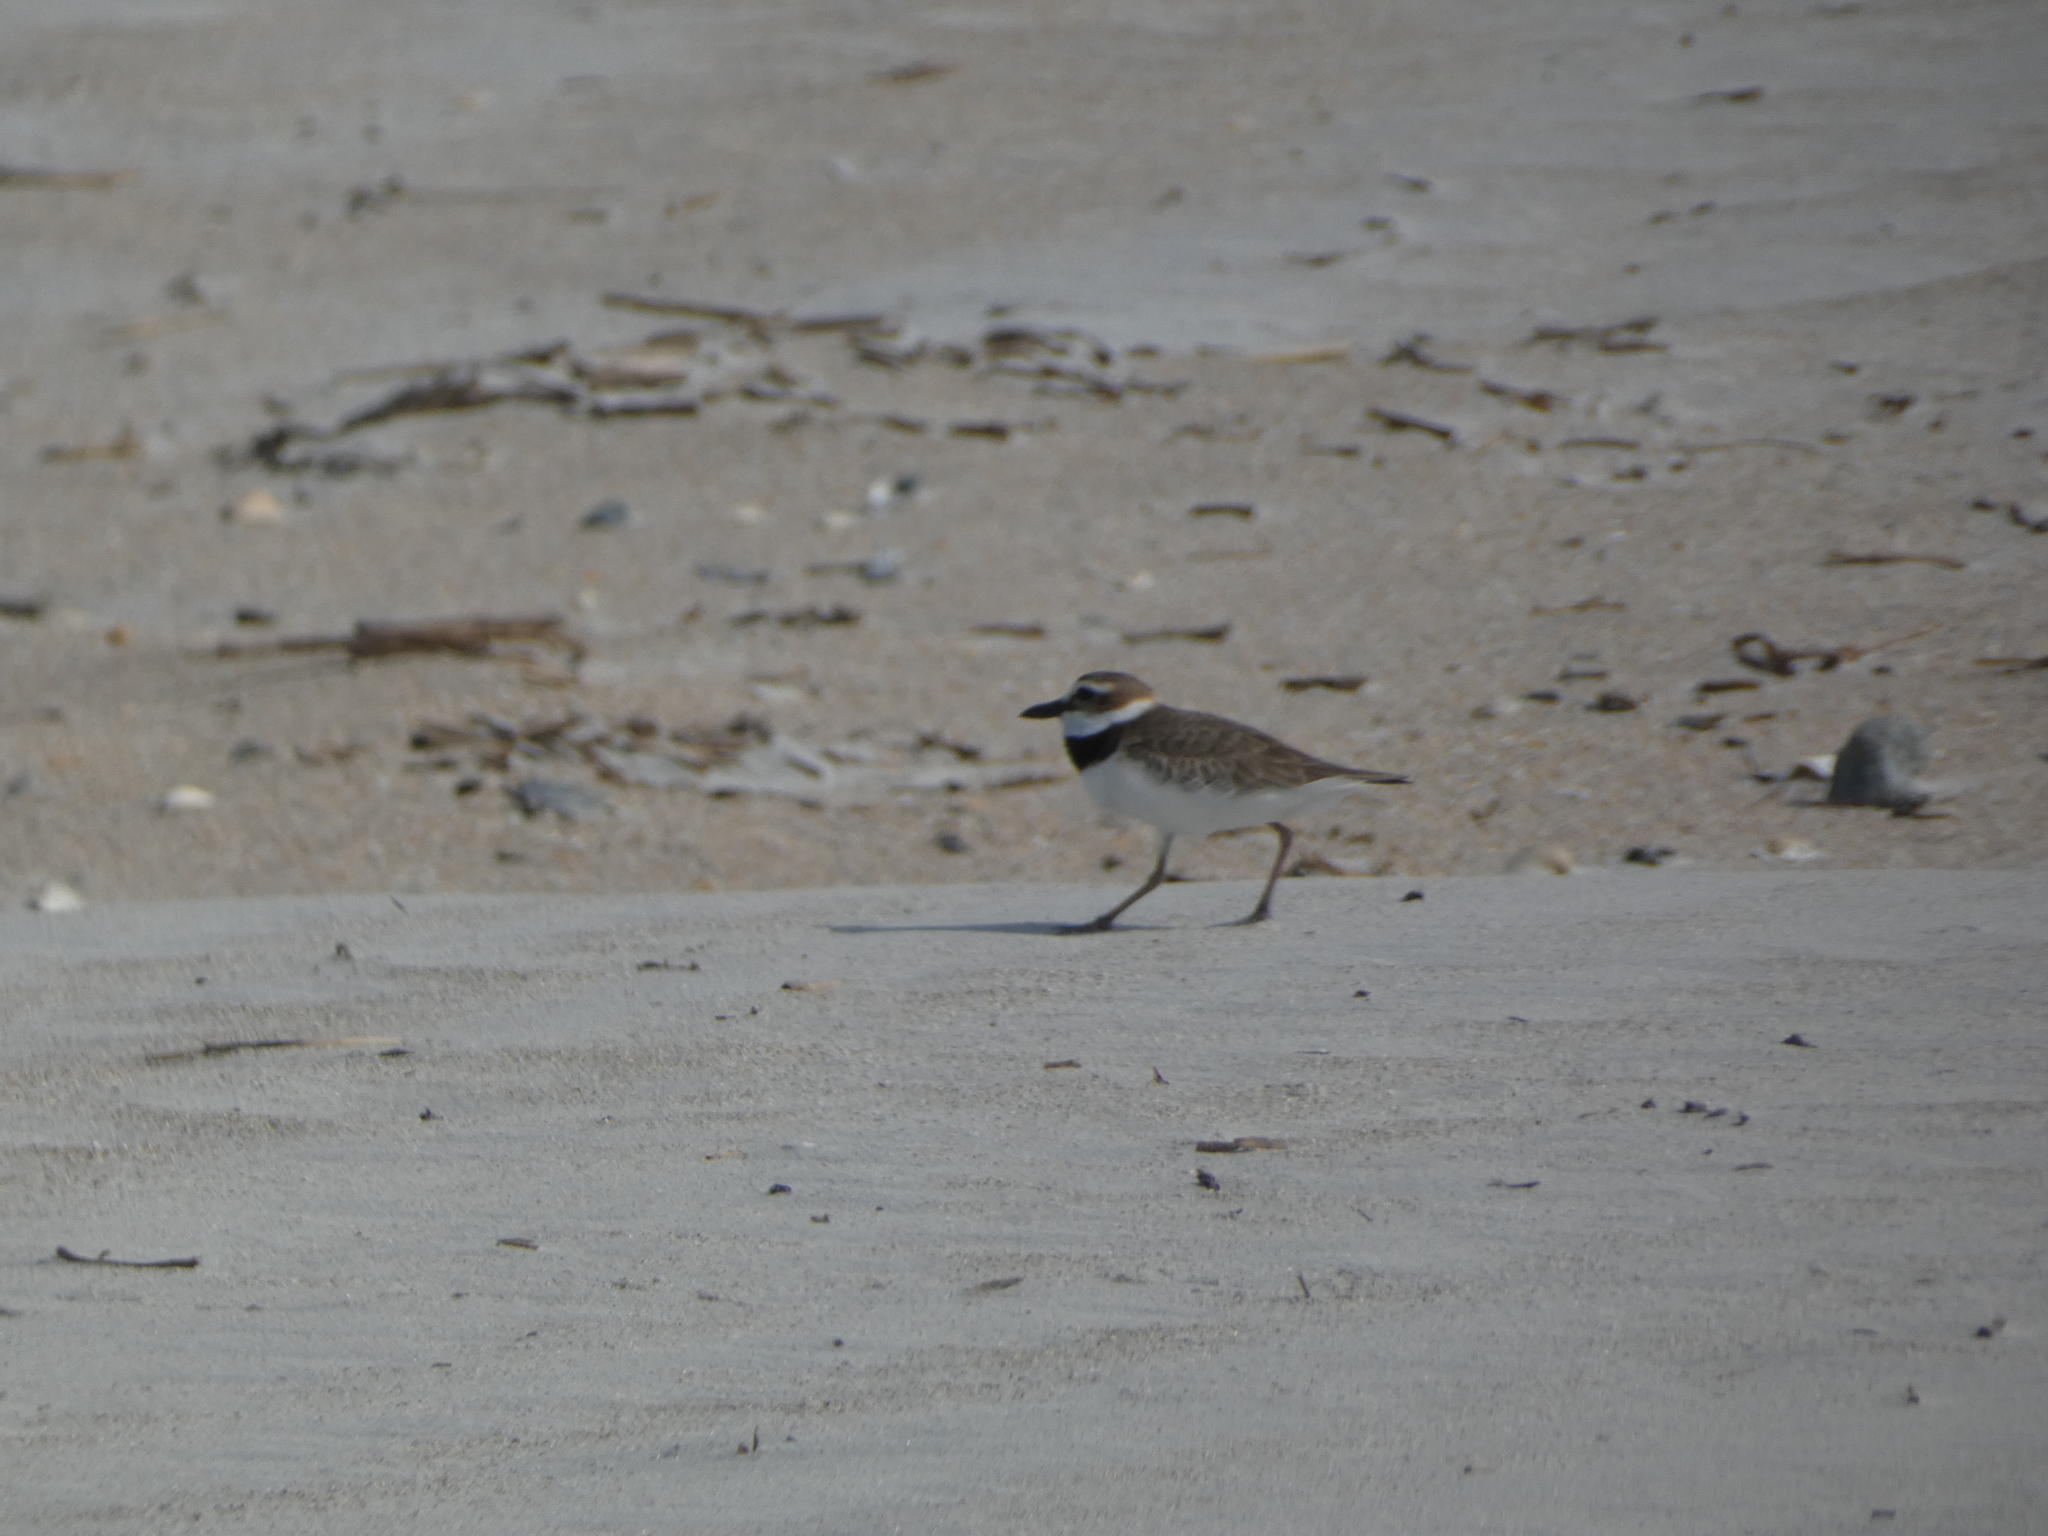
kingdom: Animalia
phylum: Chordata
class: Aves
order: Charadriiformes
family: Charadriidae
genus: Anarhynchus
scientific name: Anarhynchus
